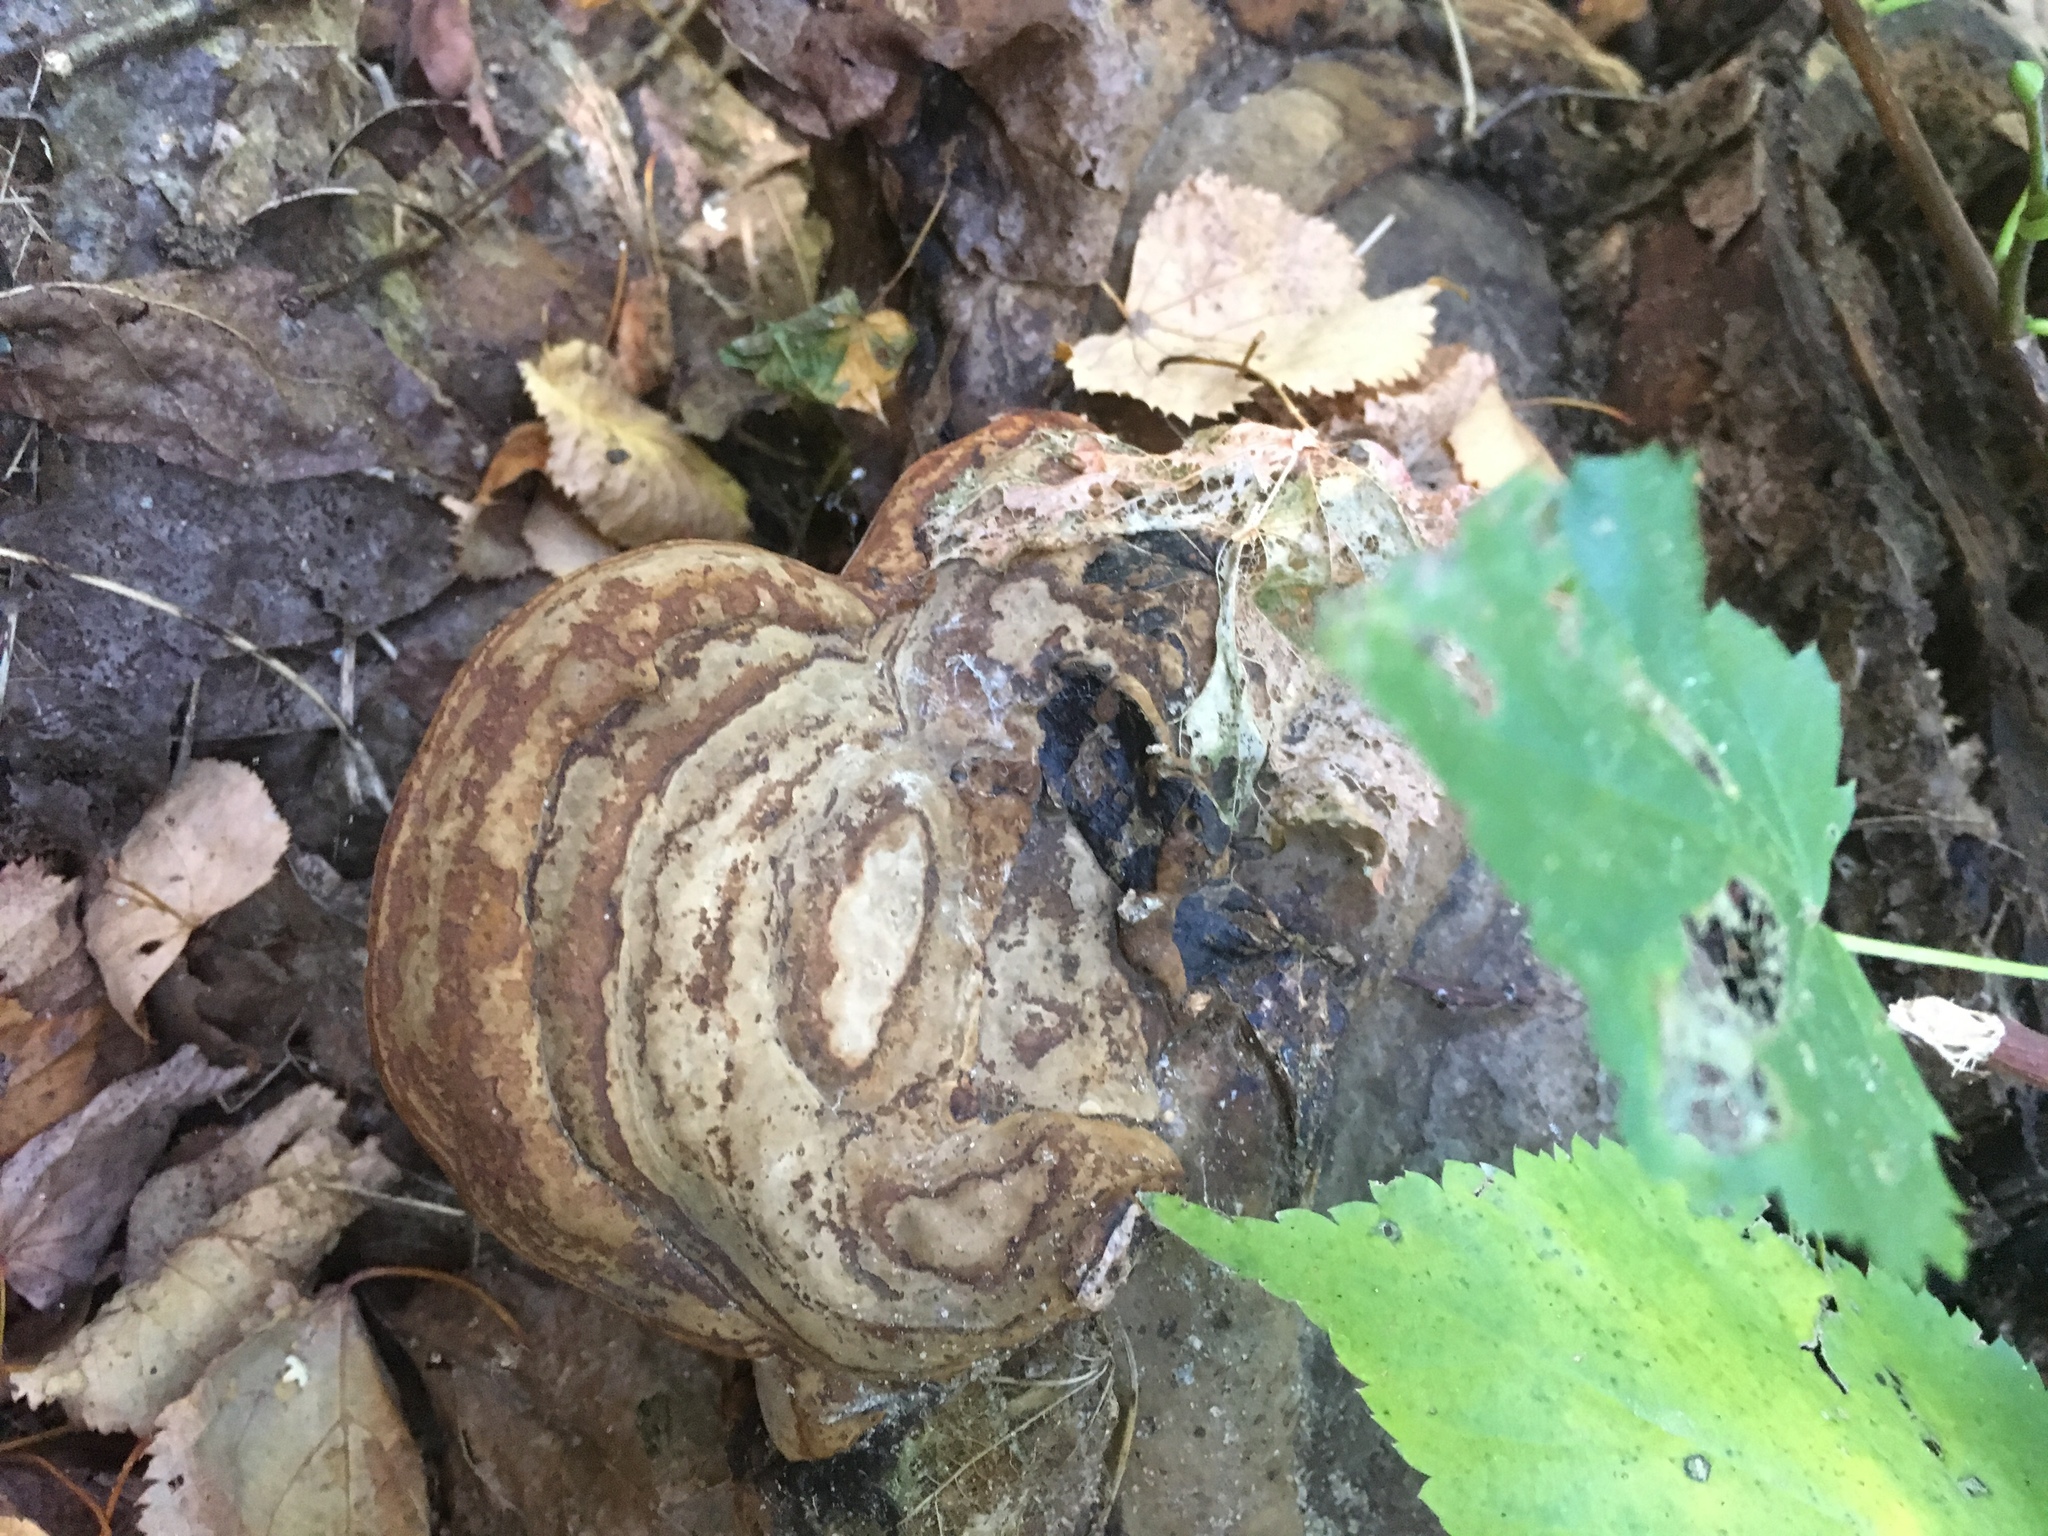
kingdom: Fungi
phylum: Basidiomycota
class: Agaricomycetes
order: Polyporales
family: Polyporaceae
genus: Fomes
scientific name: Fomes fomentarius
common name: Hoof fungus
